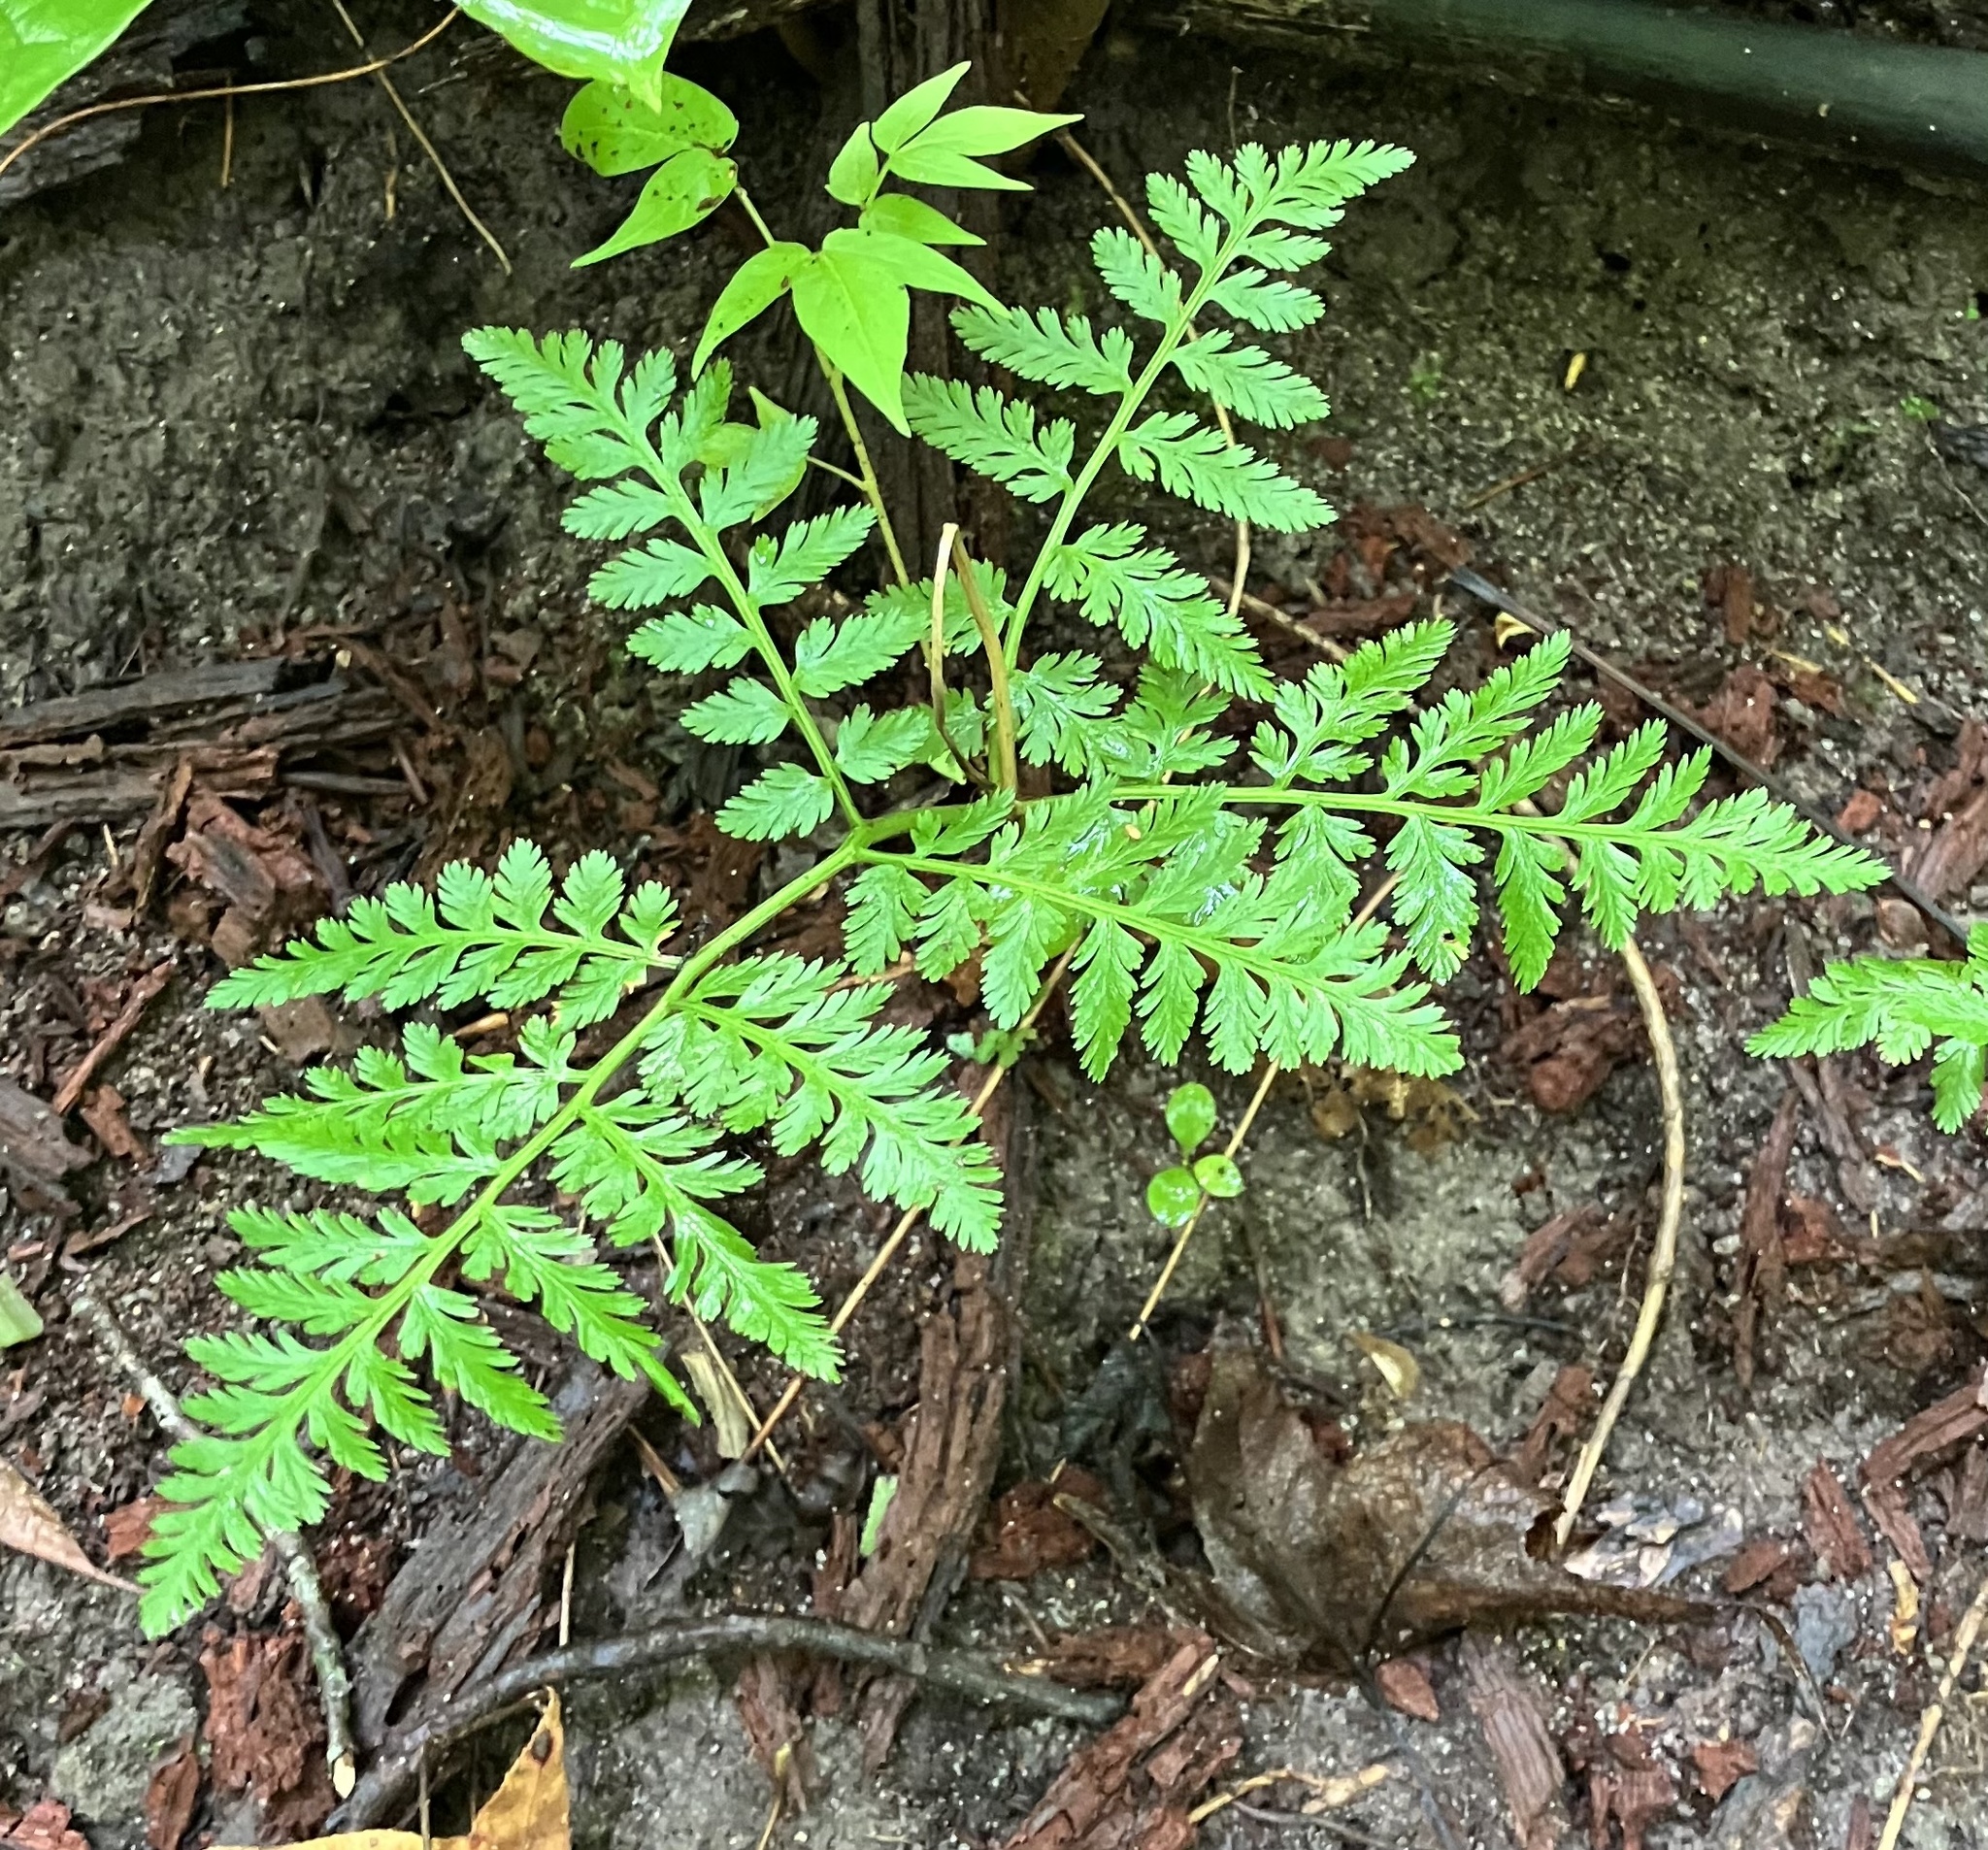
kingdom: Plantae
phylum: Tracheophyta
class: Polypodiopsida
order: Ophioglossales
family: Ophioglossaceae
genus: Botrypus
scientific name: Botrypus virginianus
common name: Common grapefern
